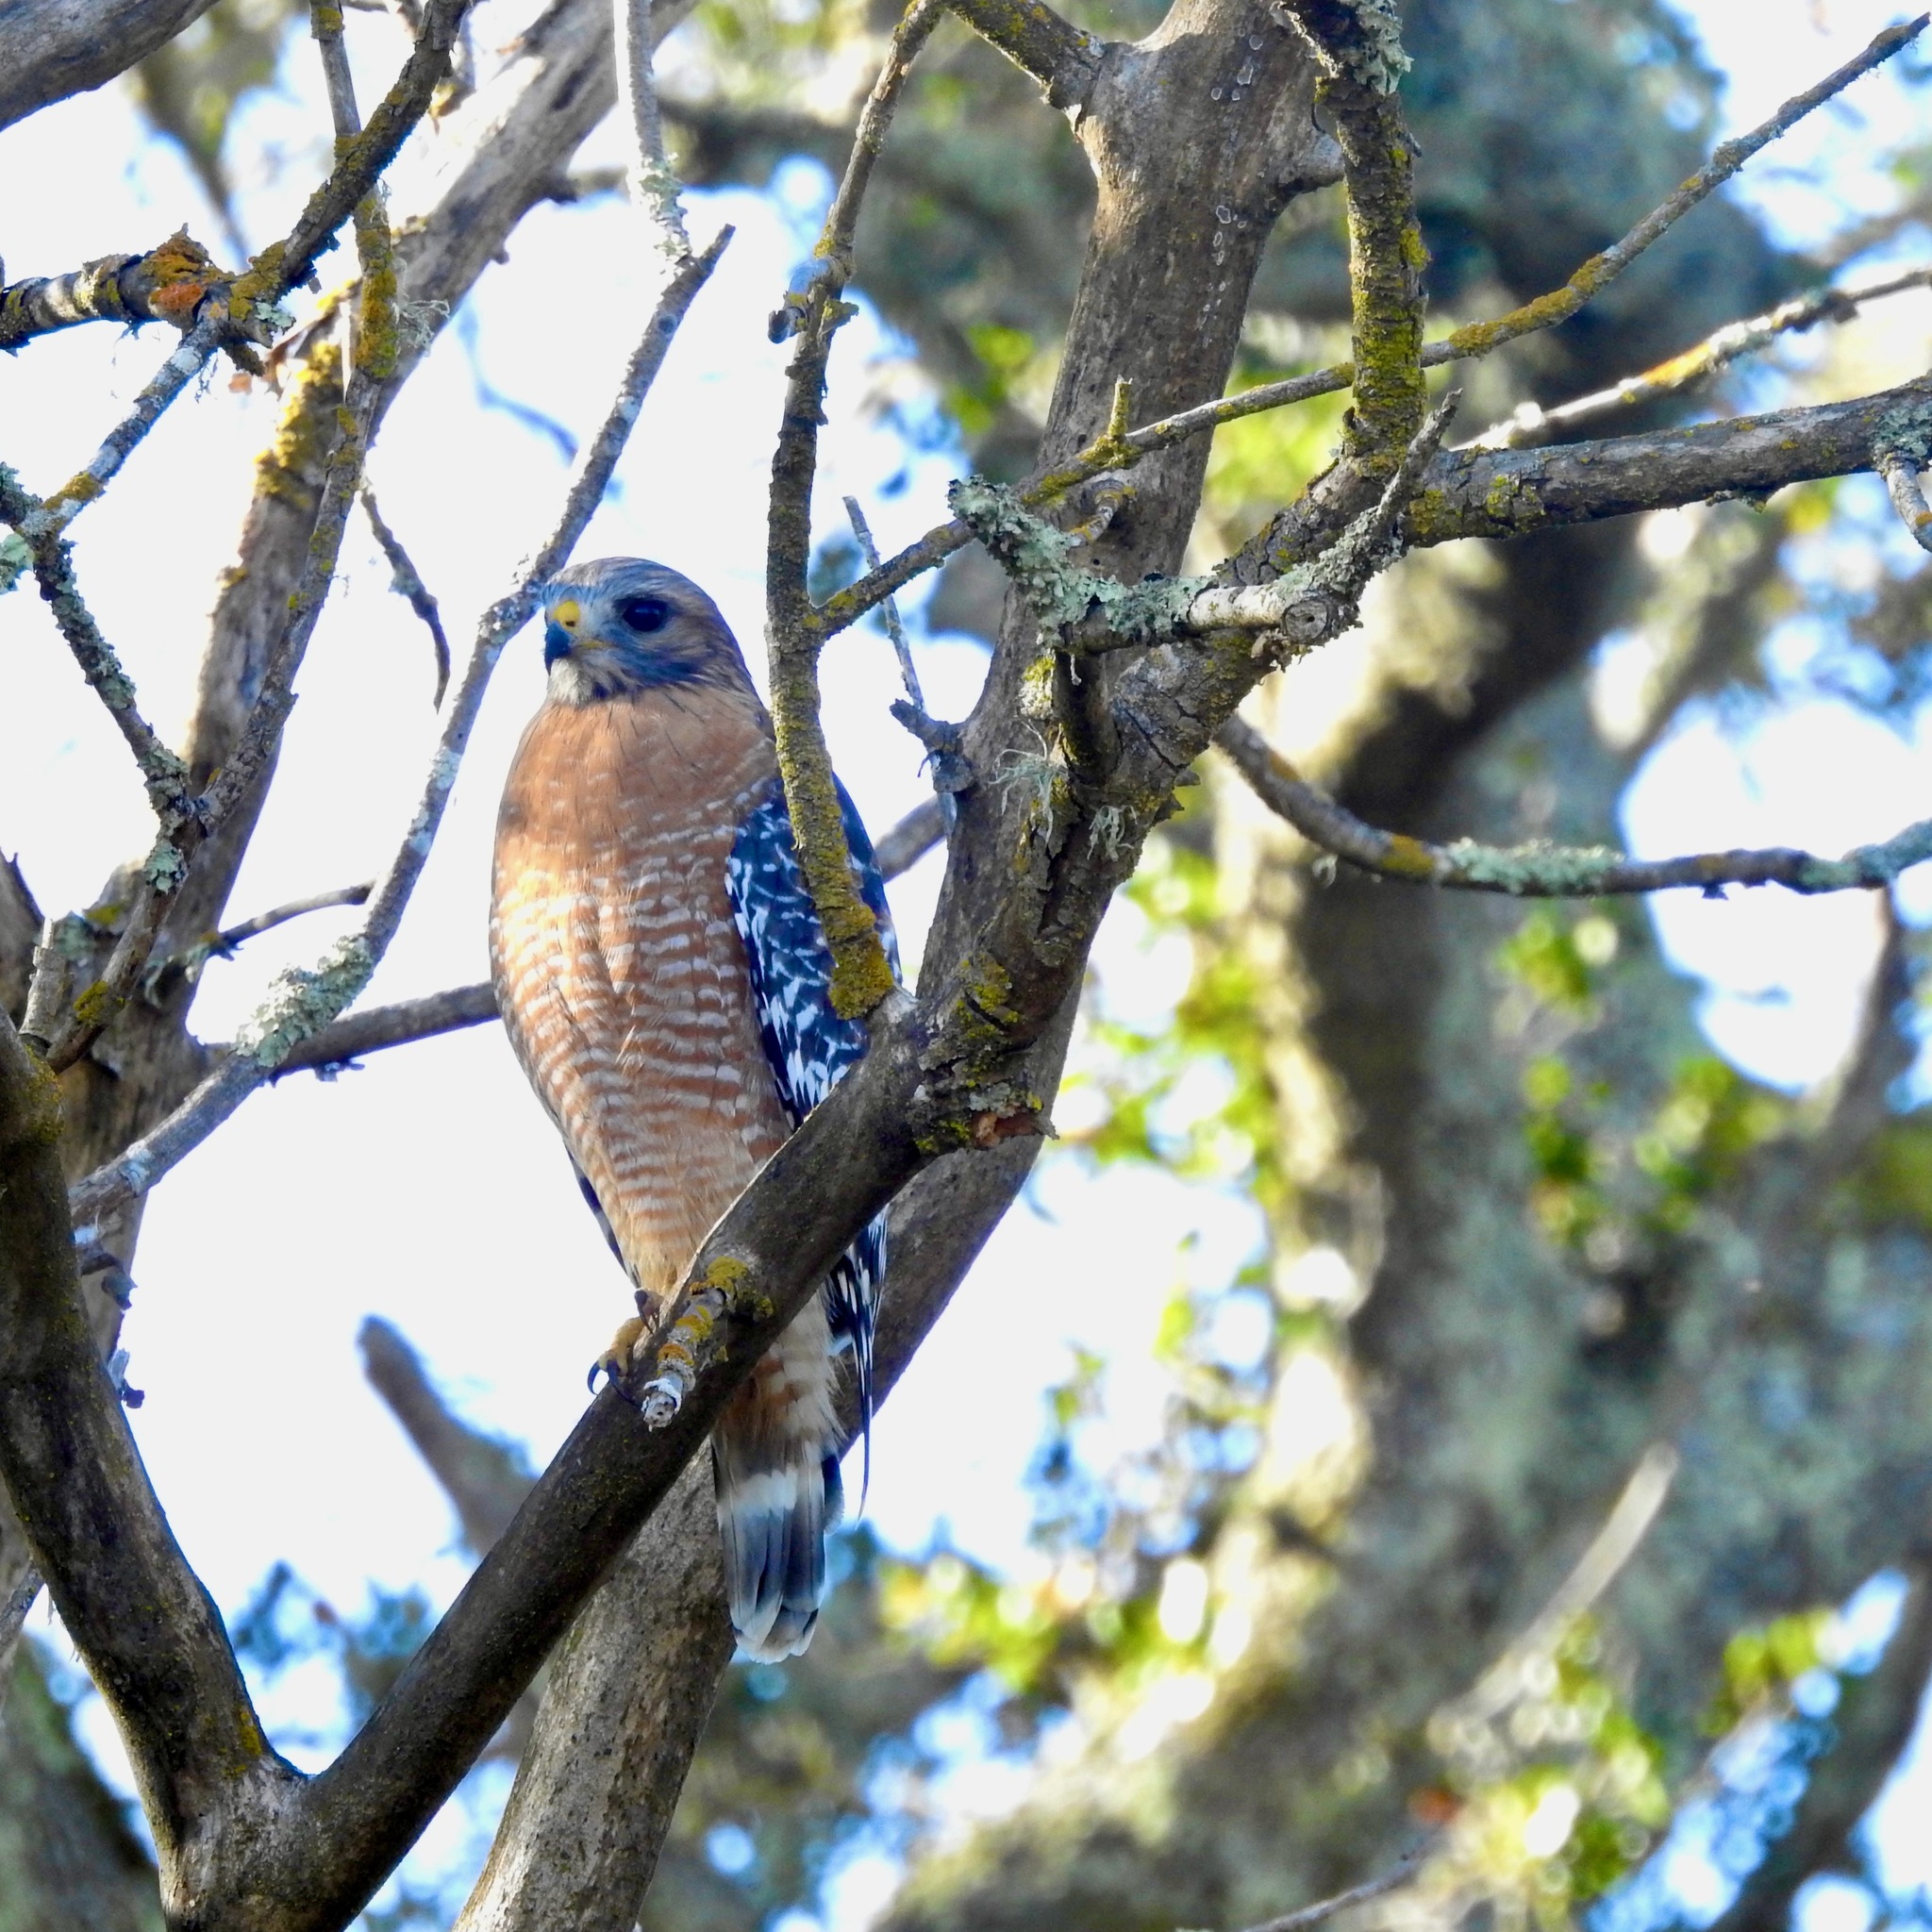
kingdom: Animalia
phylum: Chordata
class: Aves
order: Accipitriformes
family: Accipitridae
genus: Buteo
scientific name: Buteo lineatus
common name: Red-shouldered hawk
